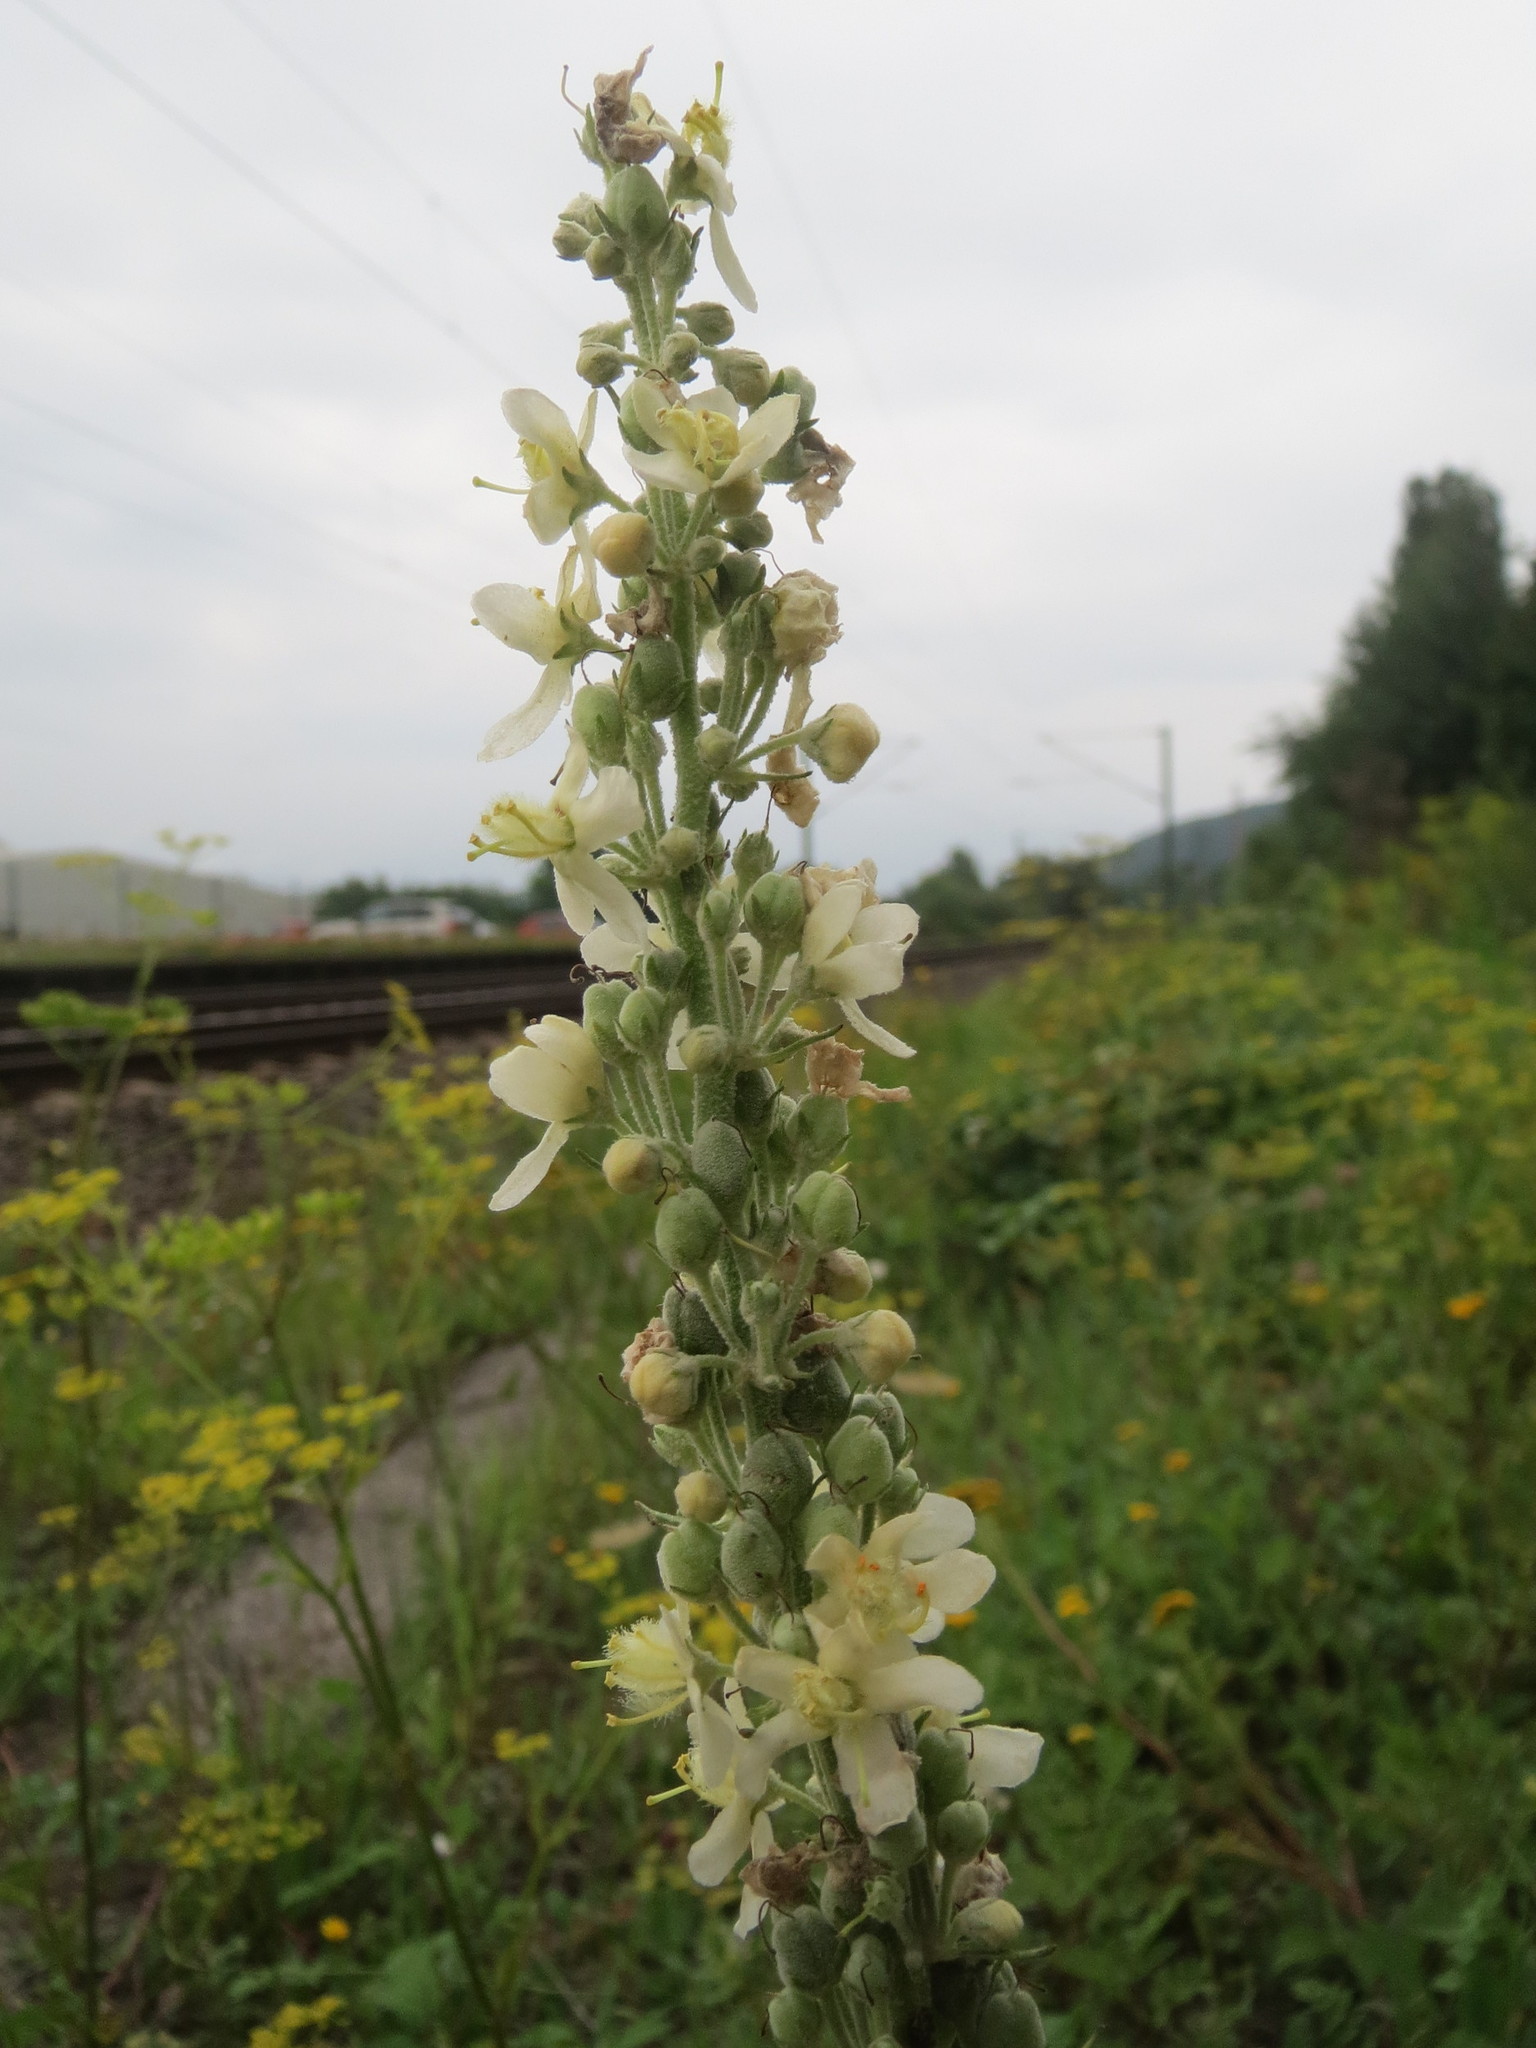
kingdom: Plantae
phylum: Tracheophyta
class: Magnoliopsida
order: Lamiales
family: Scrophulariaceae
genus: Verbascum
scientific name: Verbascum lychnitis
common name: White mullein
